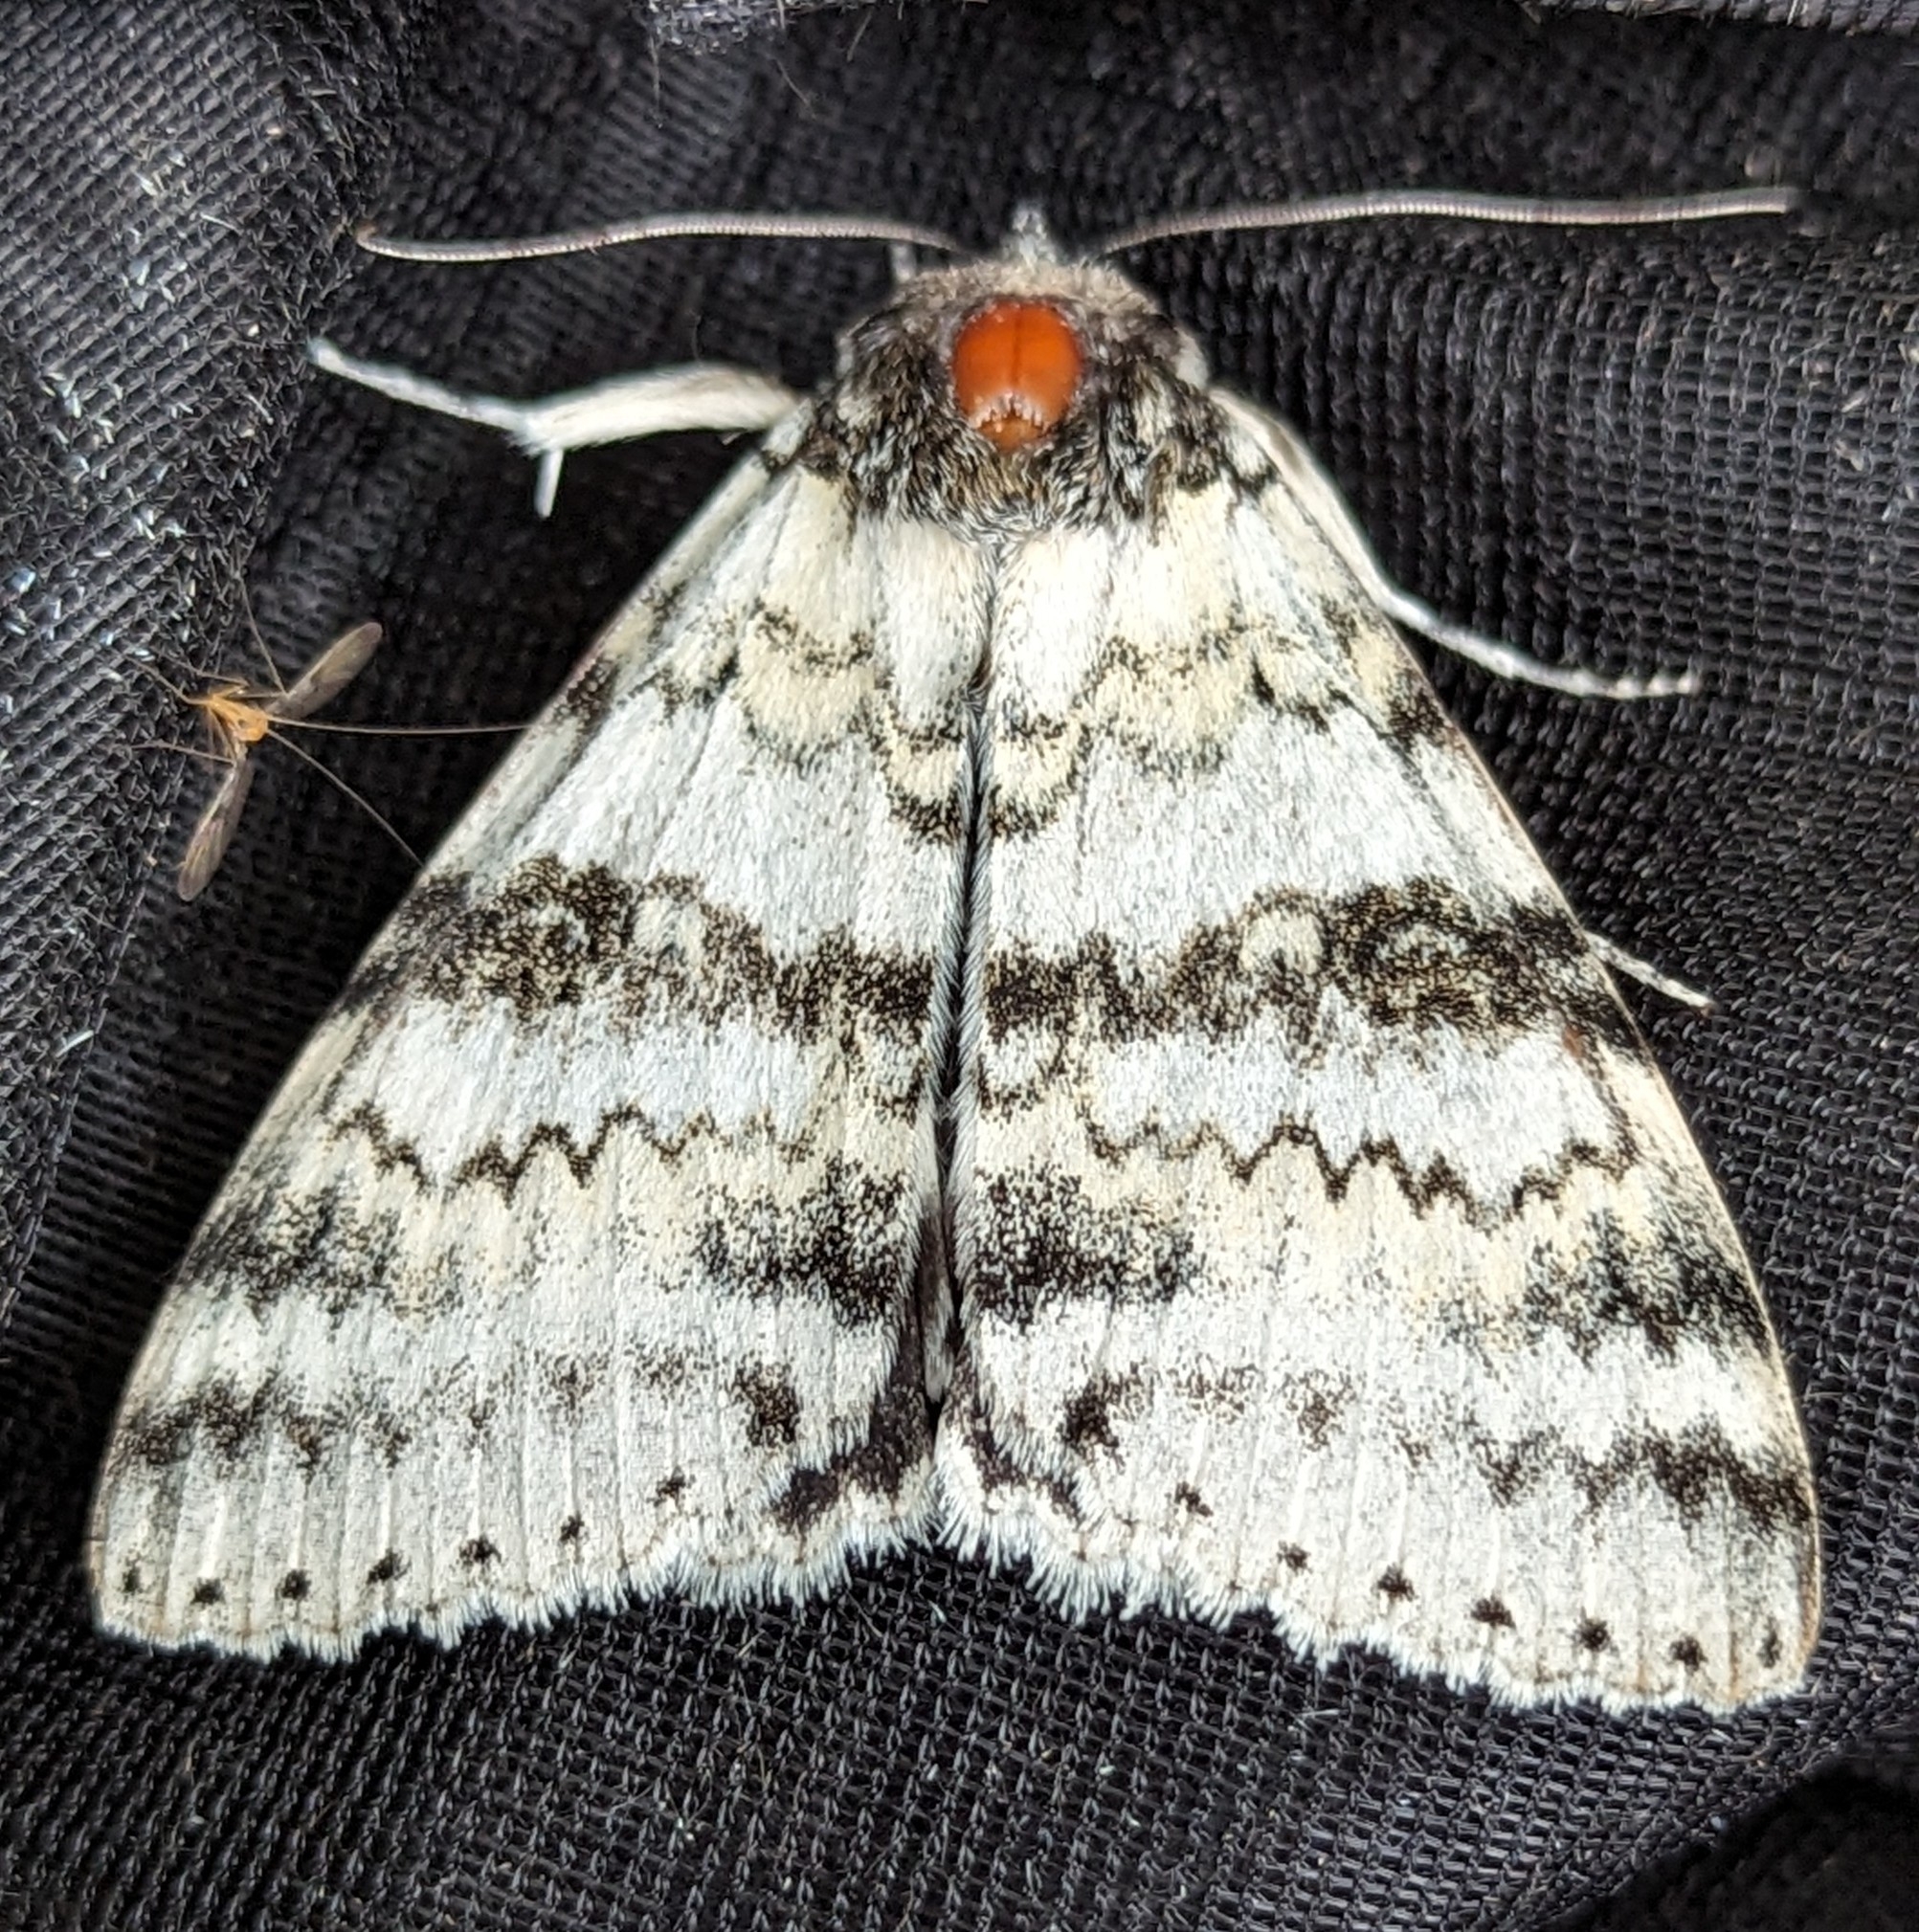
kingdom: Animalia
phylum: Arthropoda
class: Insecta
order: Lepidoptera
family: Erebidae
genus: Catocala
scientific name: Catocala relicta
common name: White underwing
